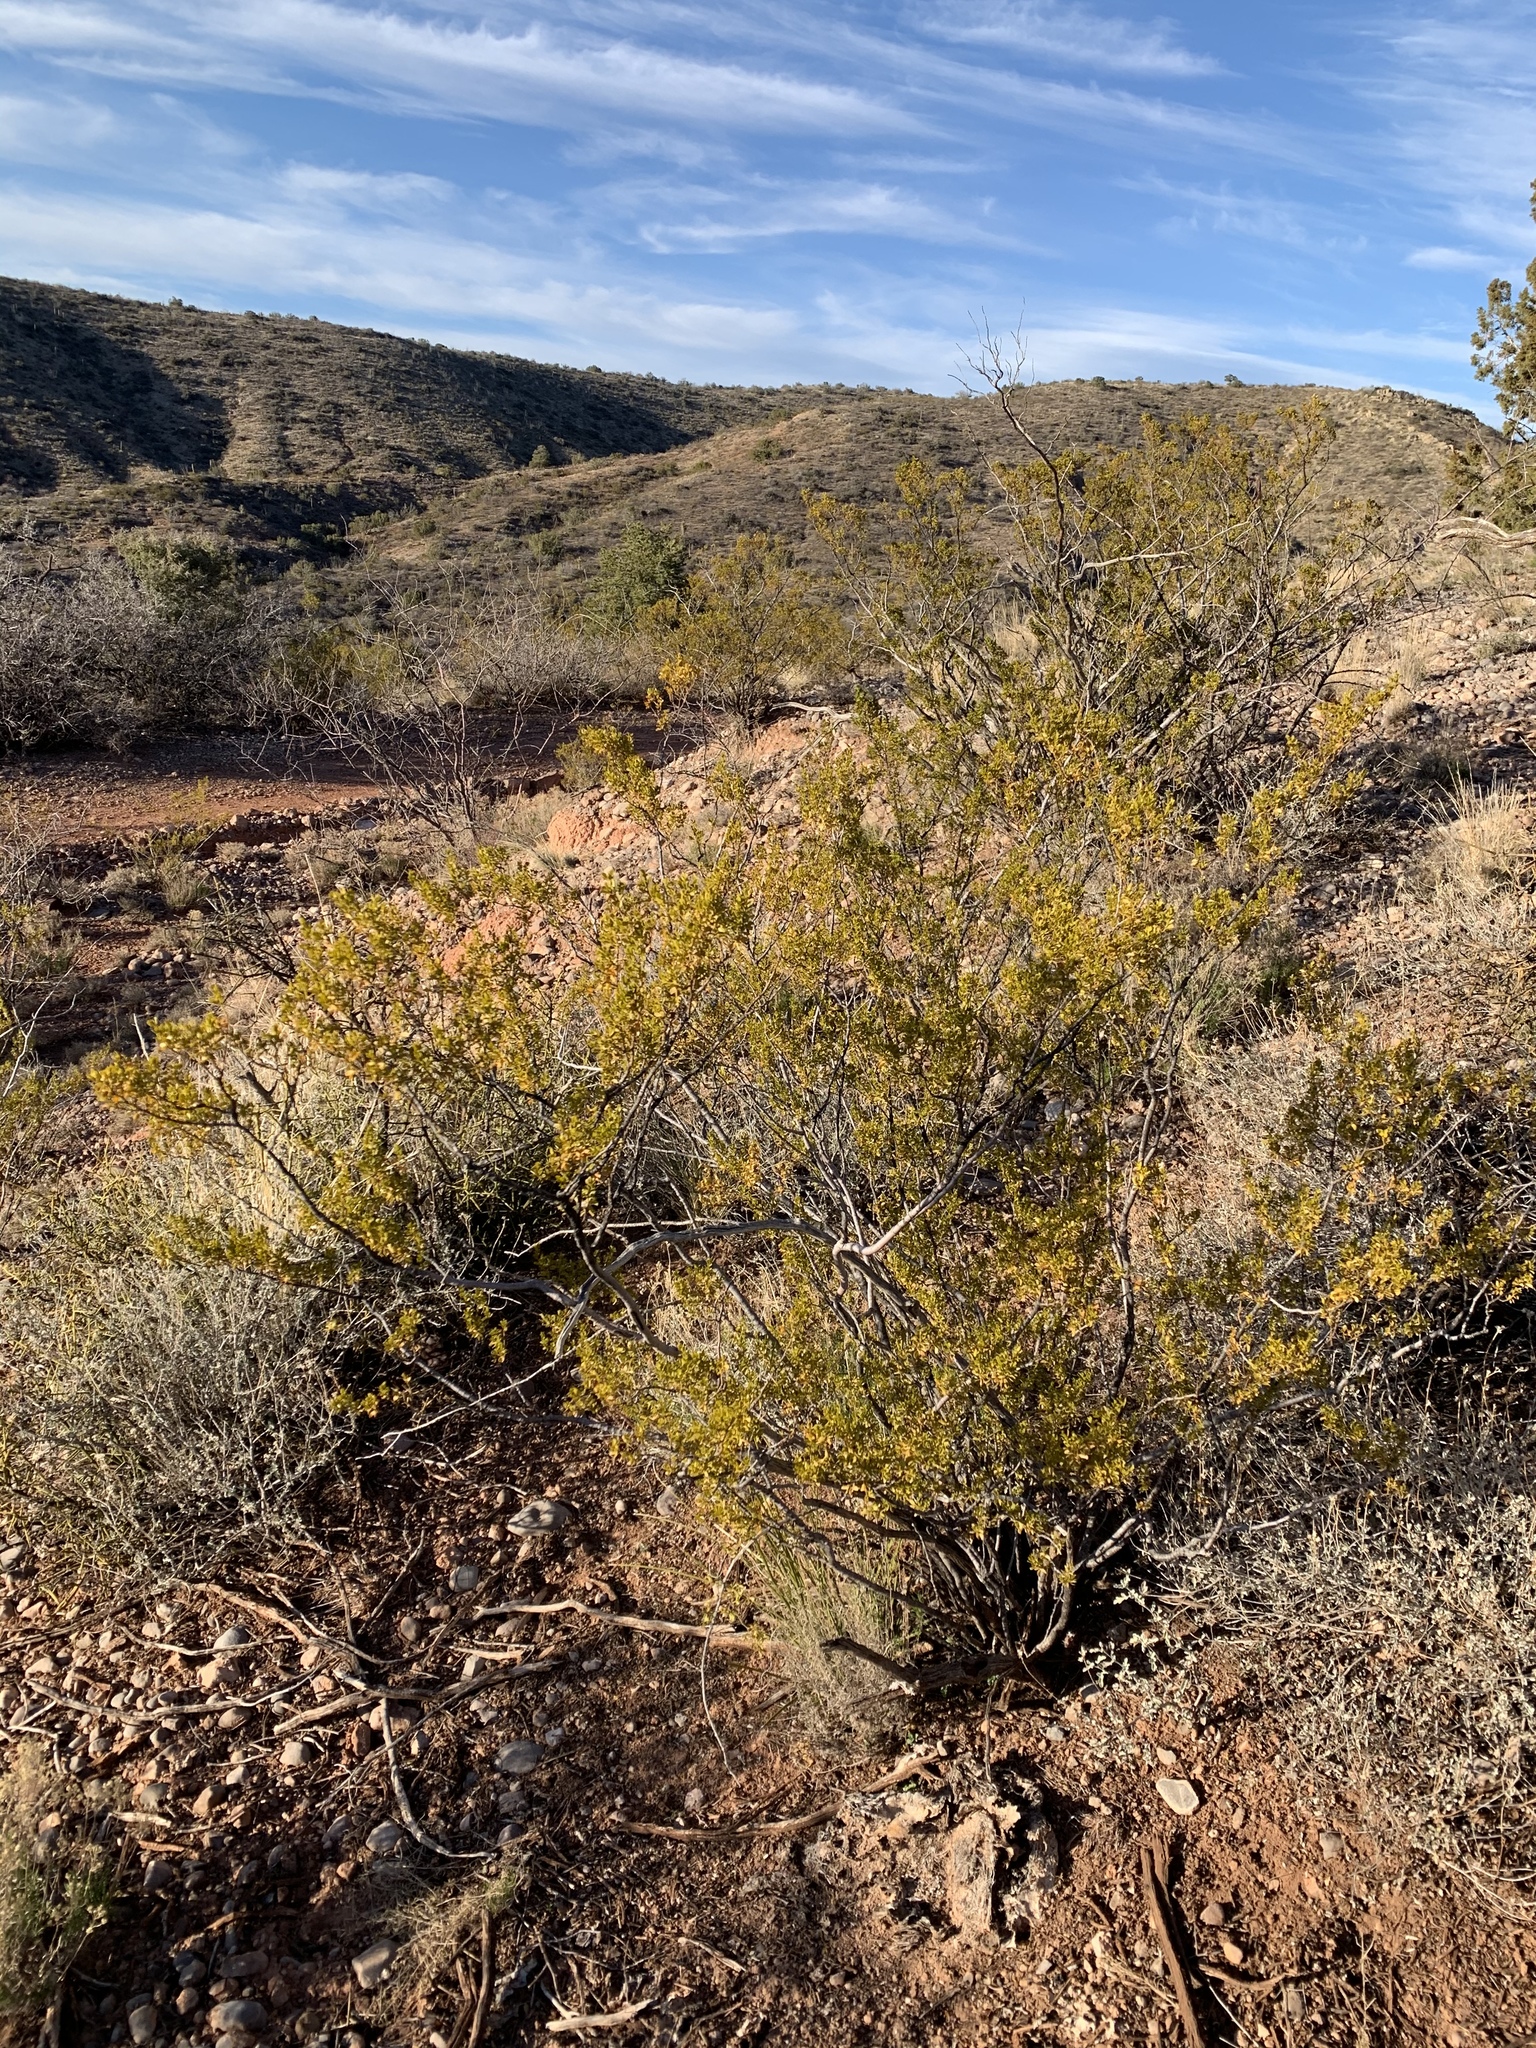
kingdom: Plantae
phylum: Tracheophyta
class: Magnoliopsida
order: Zygophyllales
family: Zygophyllaceae
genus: Larrea
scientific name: Larrea tridentata
